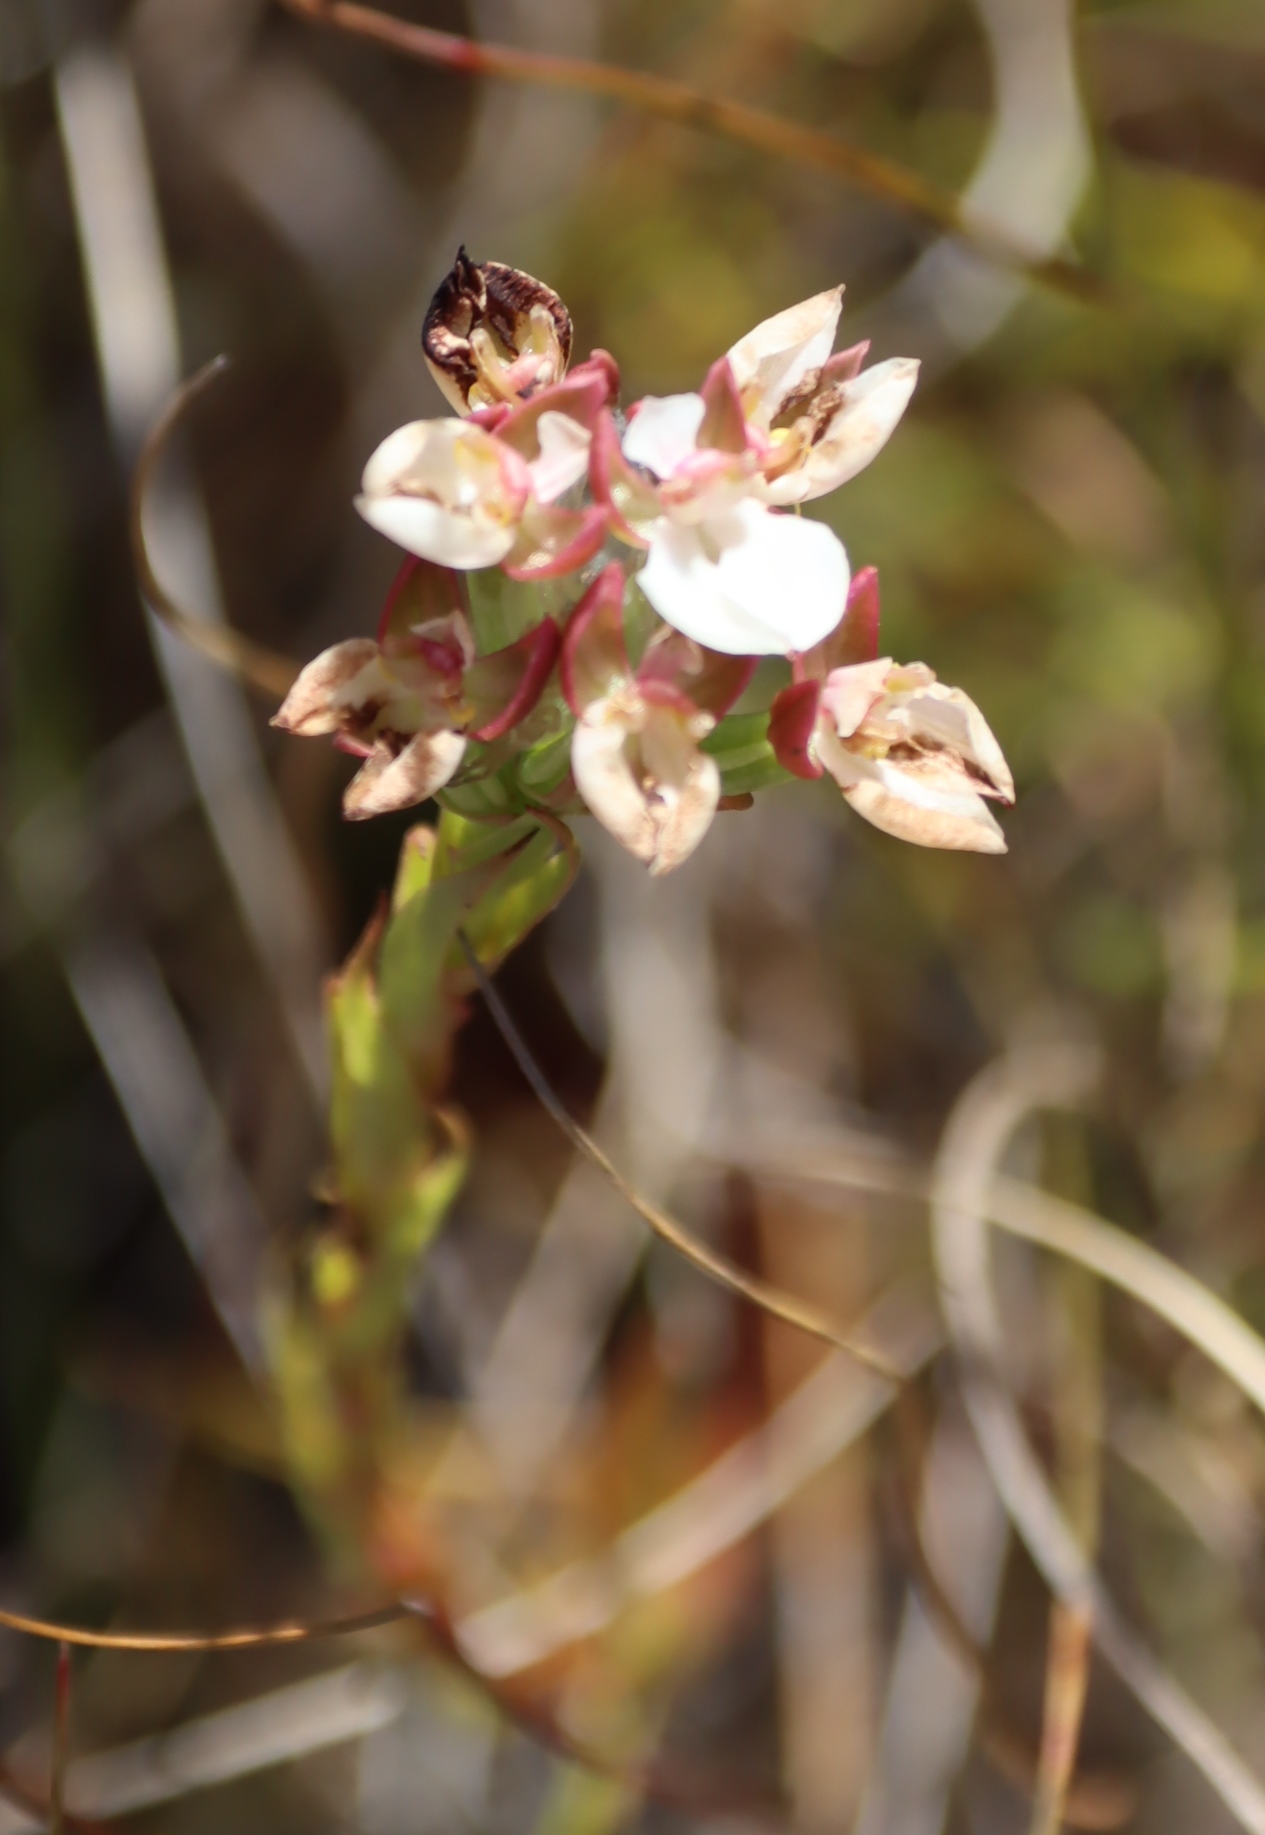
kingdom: Plantae
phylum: Tracheophyta
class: Liliopsida
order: Asparagales
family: Orchidaceae
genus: Ceratandra
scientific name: Ceratandra globosa
